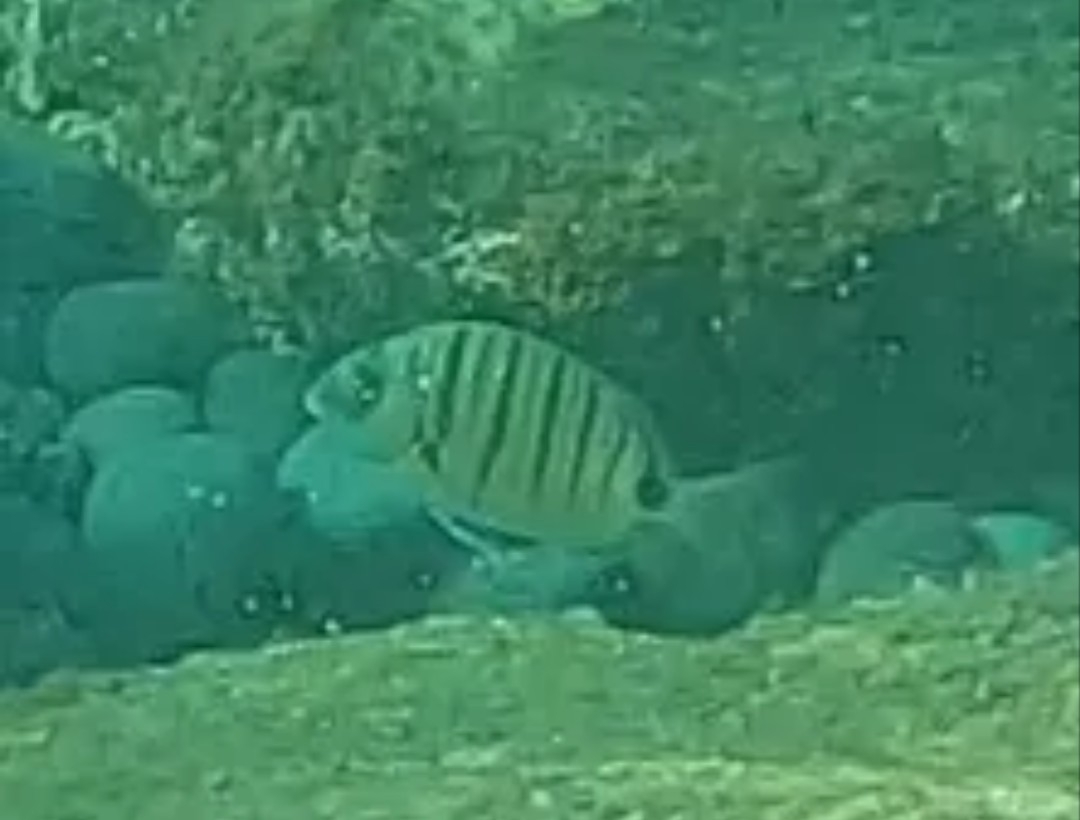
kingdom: Animalia
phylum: Chordata
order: Perciformes
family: Sparidae
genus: Diplodus
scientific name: Diplodus cadenati
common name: Moroccan white seabream
